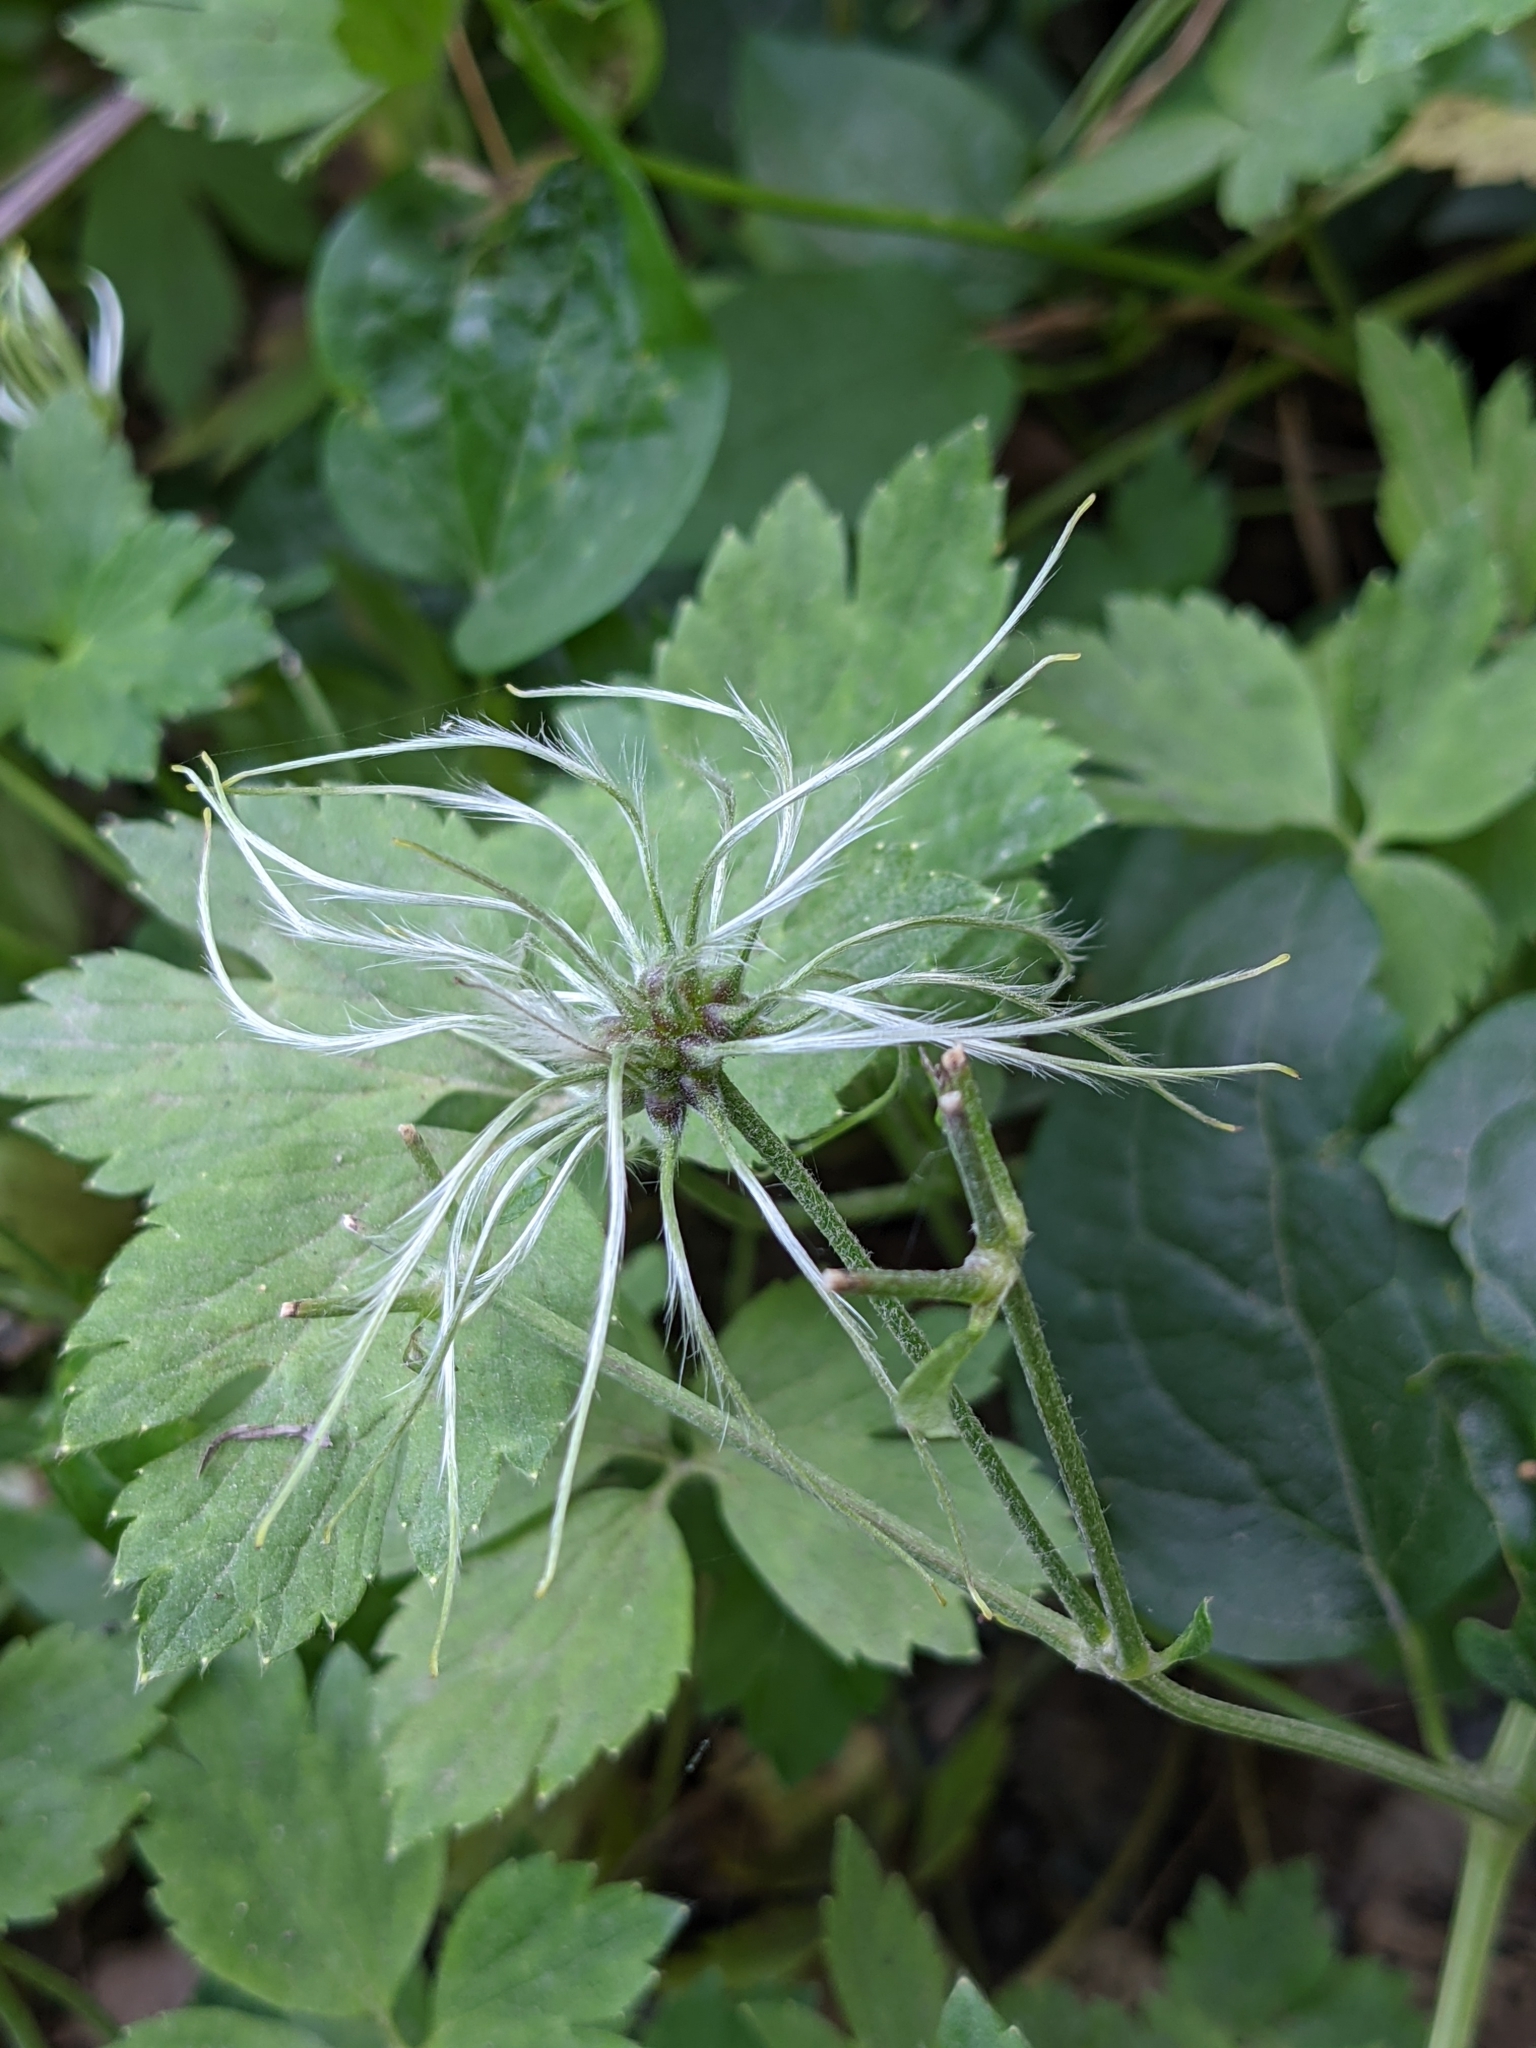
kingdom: Plantae
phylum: Tracheophyta
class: Magnoliopsida
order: Ranunculales
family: Ranunculaceae
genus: Clematis
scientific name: Clematis vitalba
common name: Evergreen clematis
